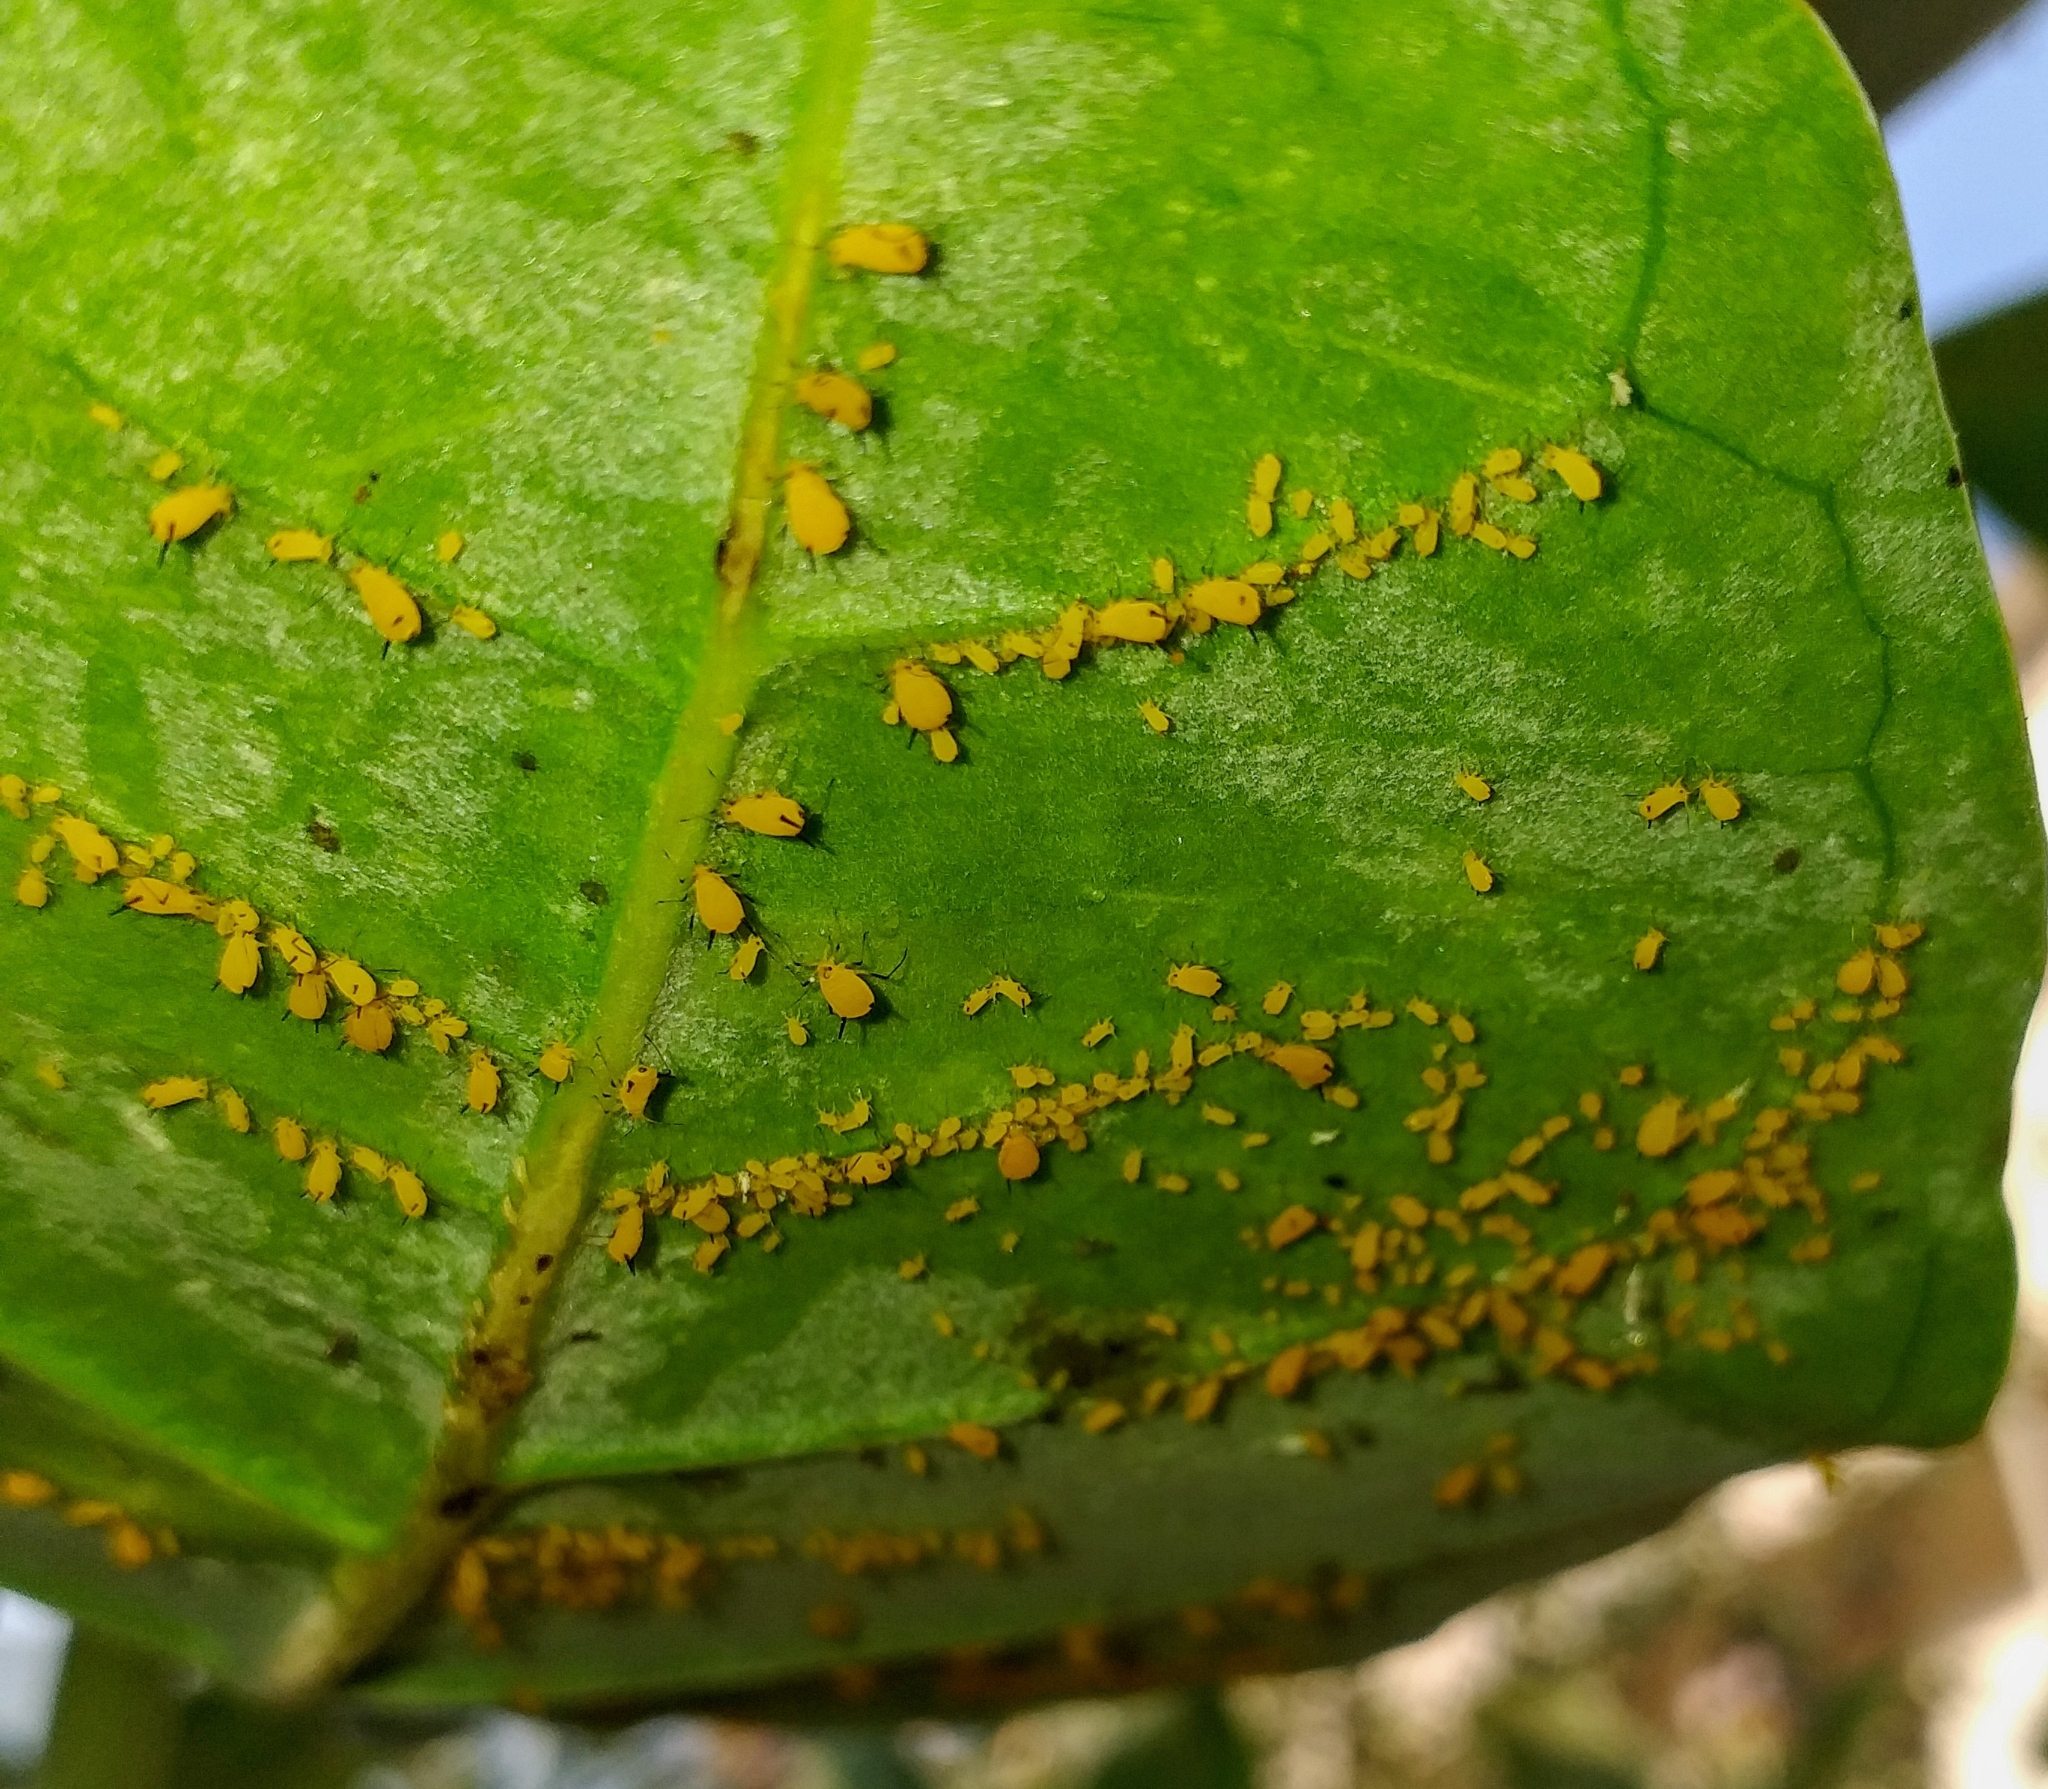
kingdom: Animalia
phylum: Arthropoda
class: Insecta
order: Hemiptera
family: Aphididae
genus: Aphis
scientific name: Aphis nerii
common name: Oleander aphid
